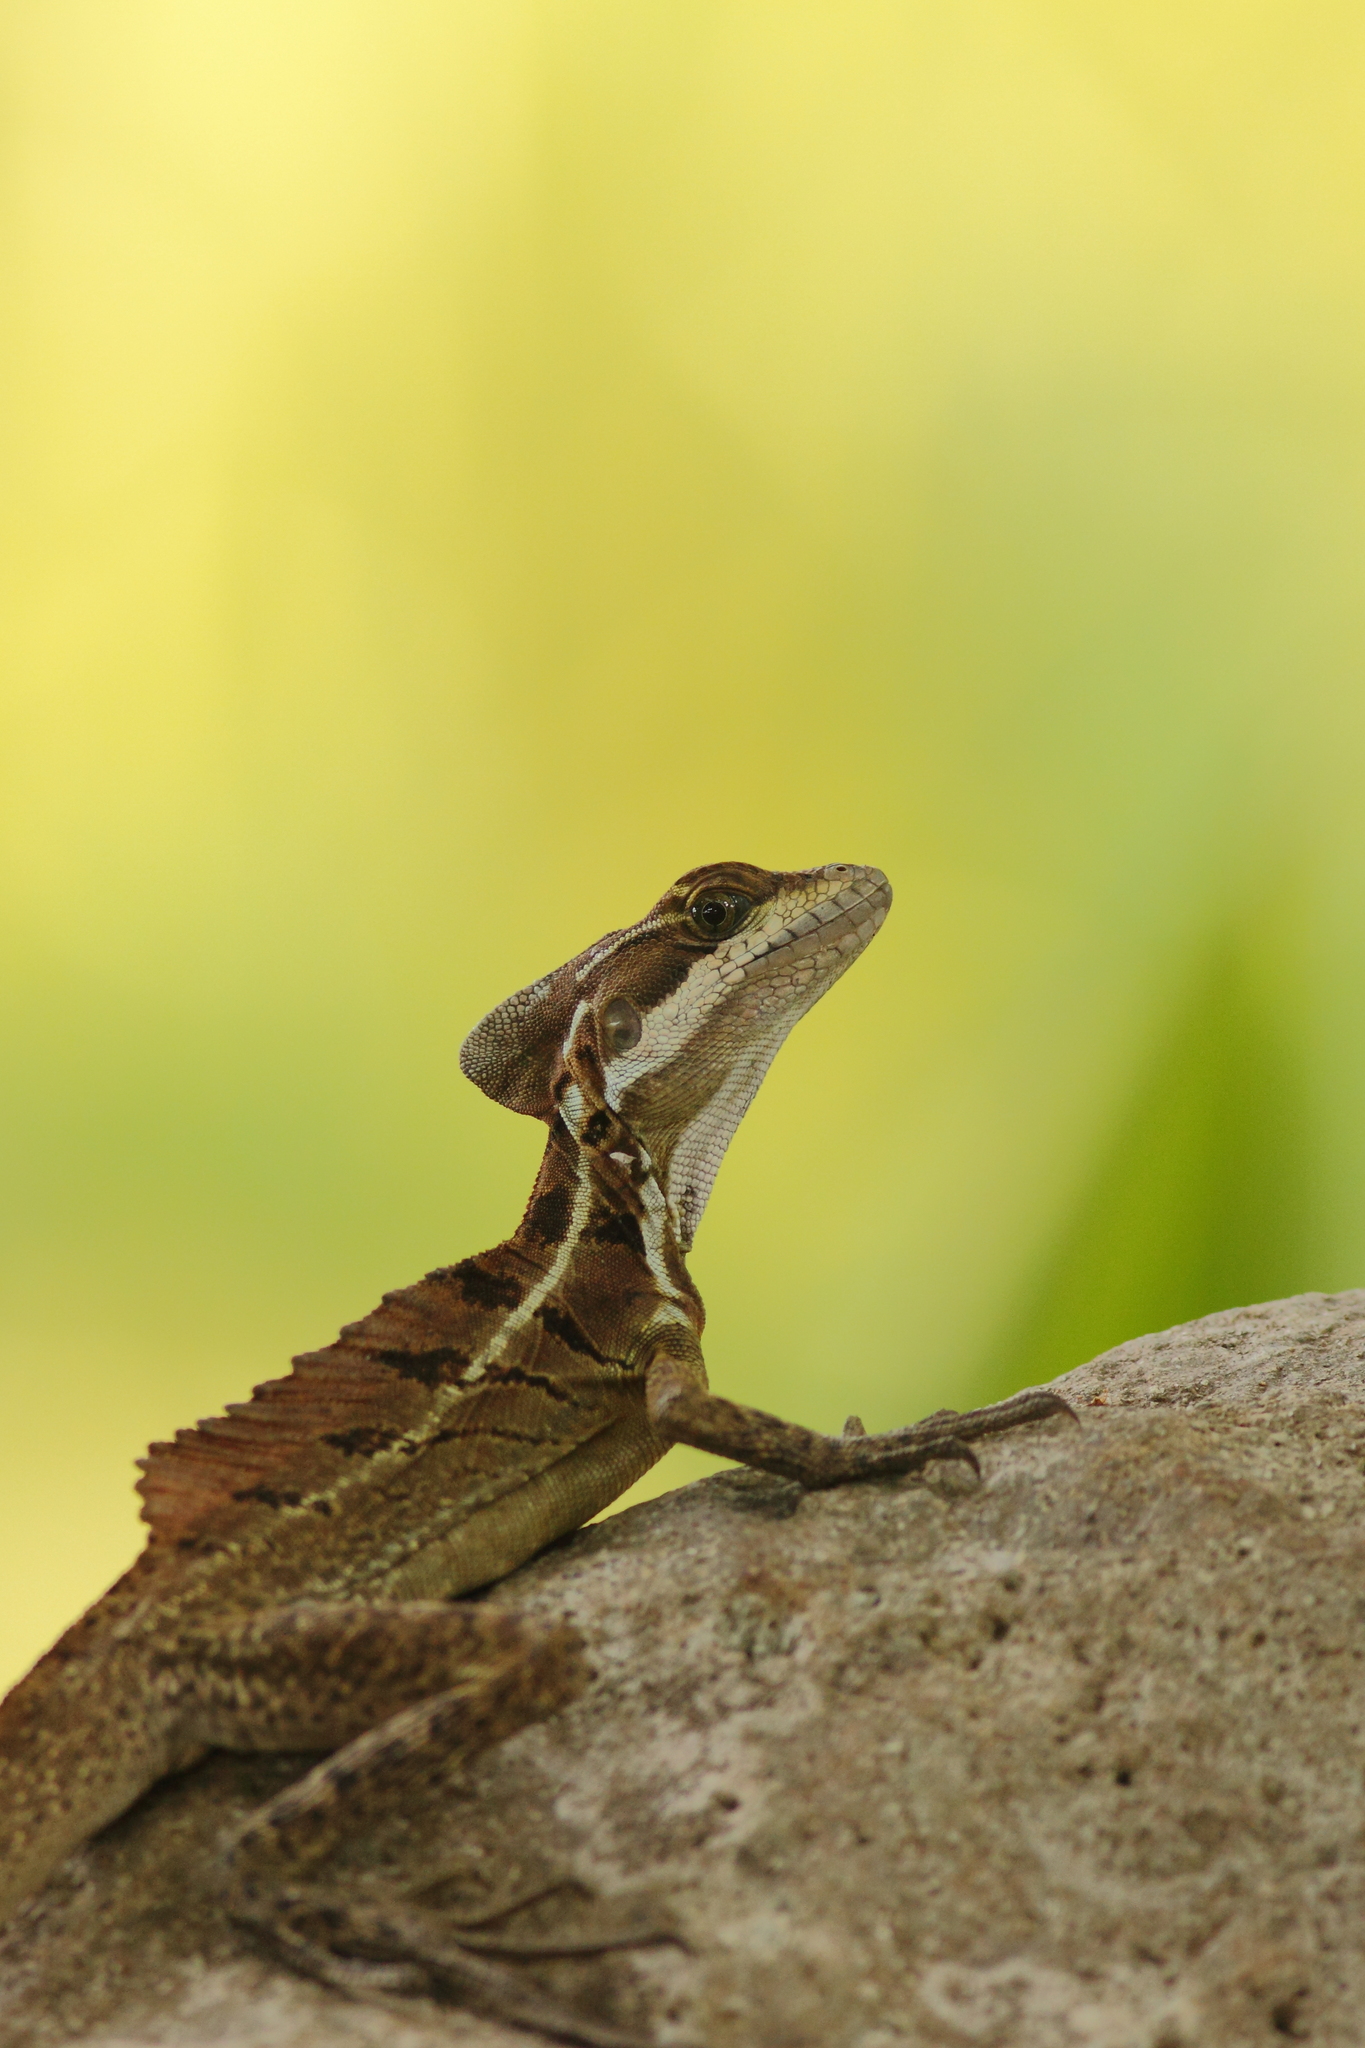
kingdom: Animalia
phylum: Chordata
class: Squamata
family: Corytophanidae
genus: Basiliscus
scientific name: Basiliscus basiliscus
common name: Common basilisk
